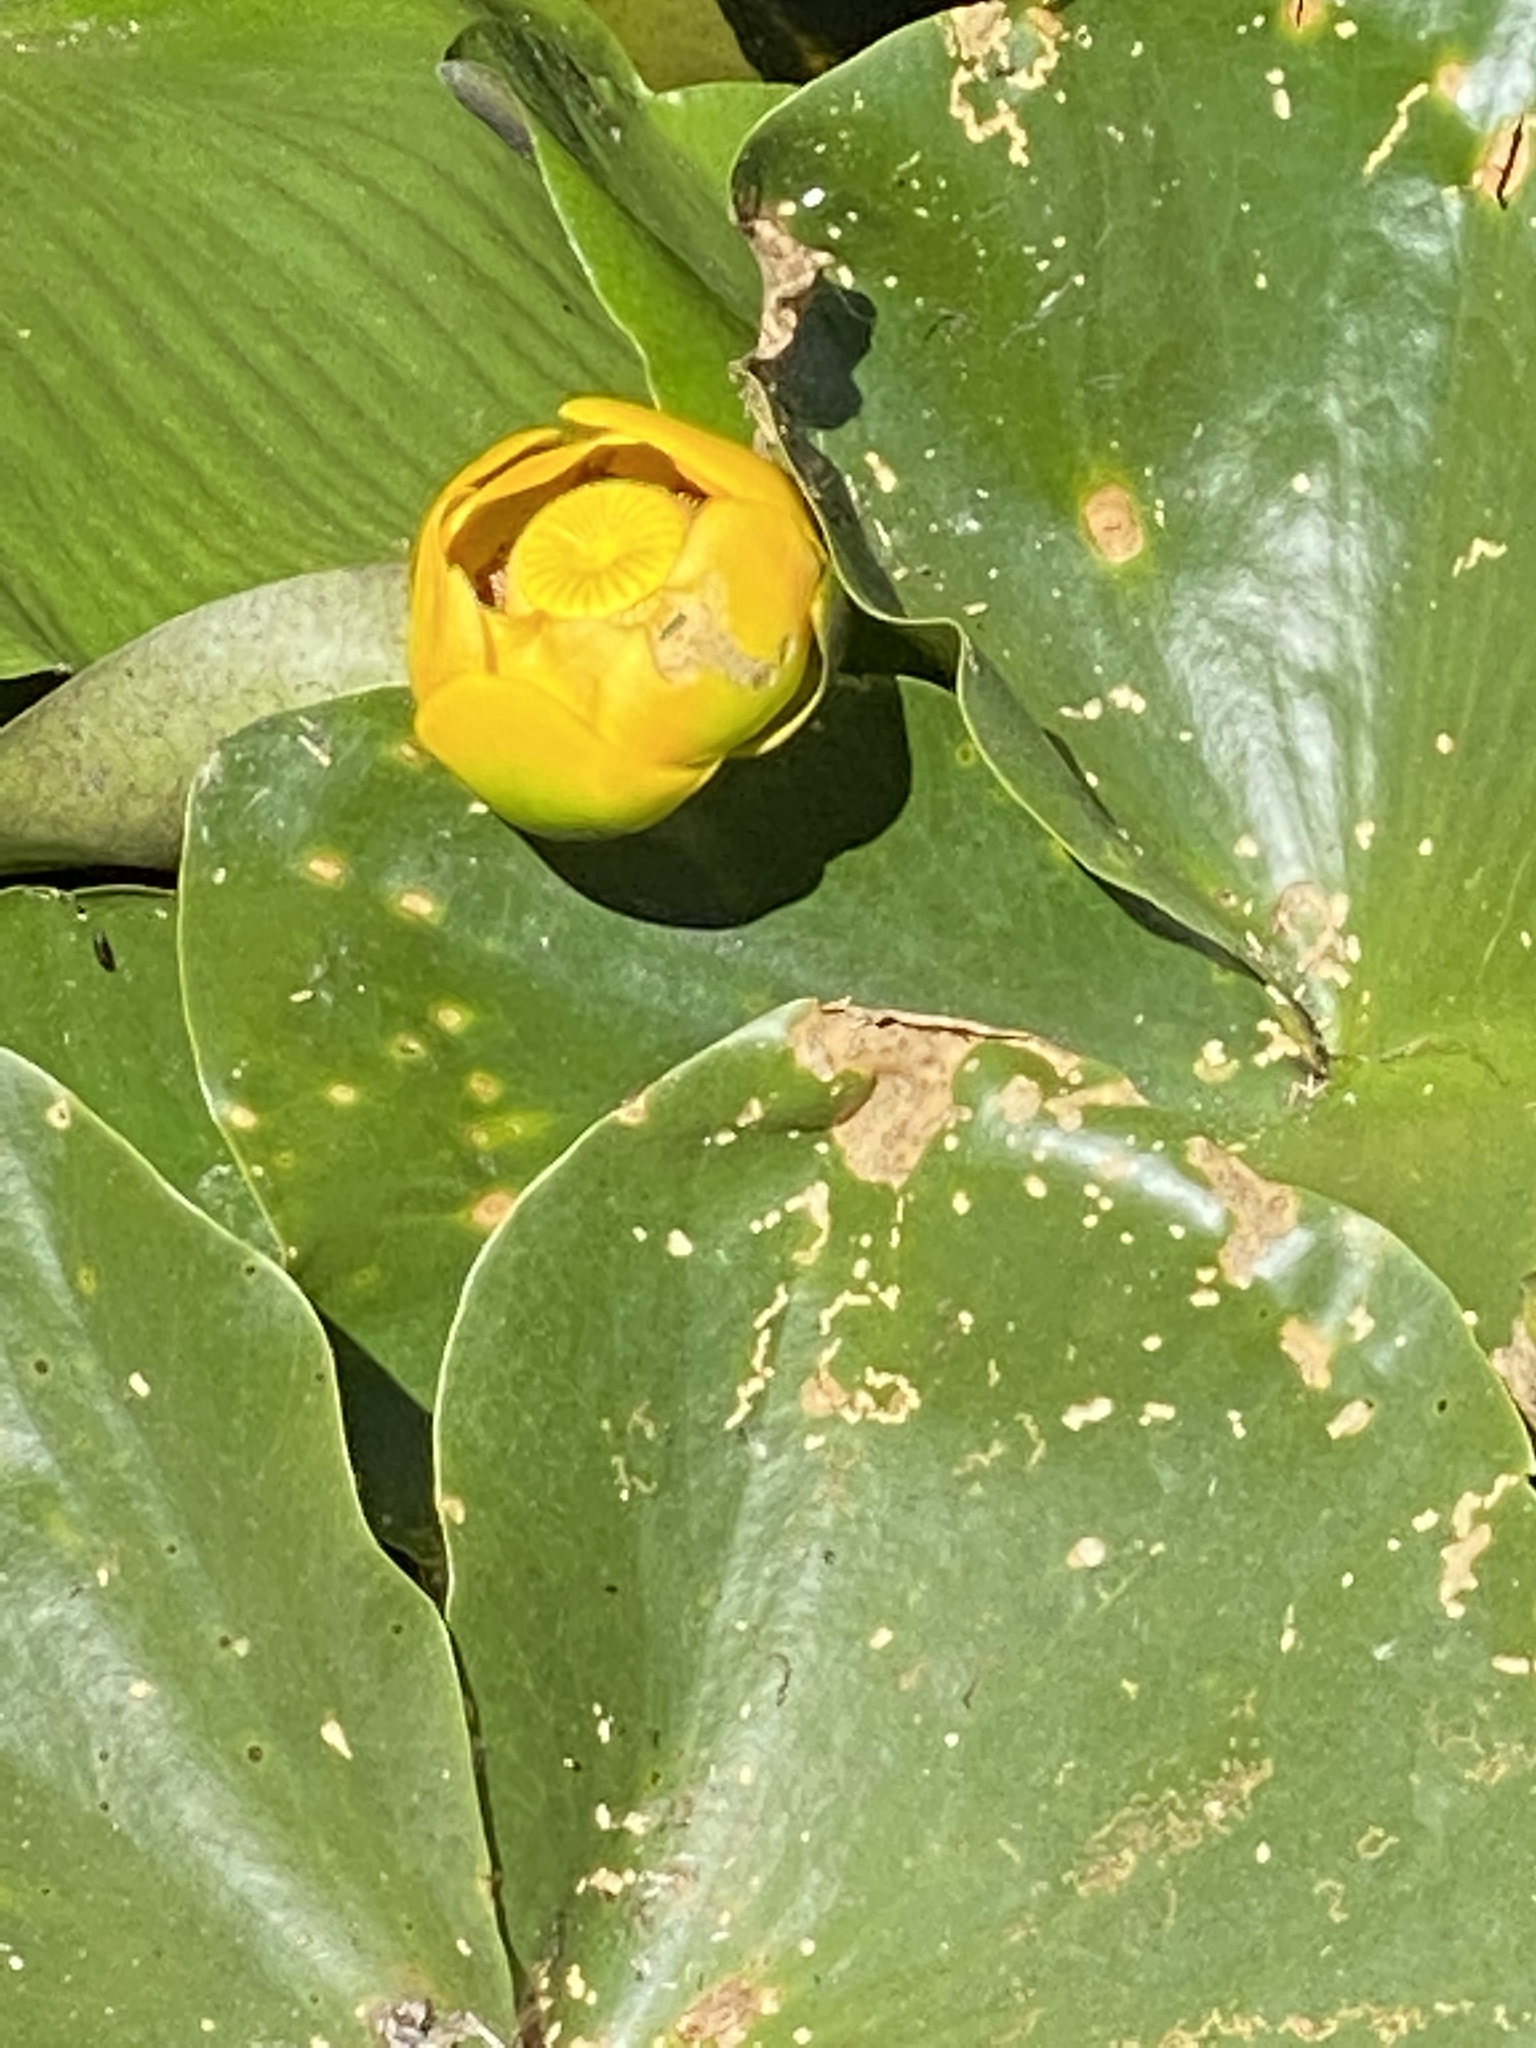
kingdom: Plantae
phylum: Tracheophyta
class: Magnoliopsida
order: Nymphaeales
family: Nymphaeaceae
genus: Nuphar
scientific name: Nuphar polysepala
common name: Rocky mountain cow-lily
